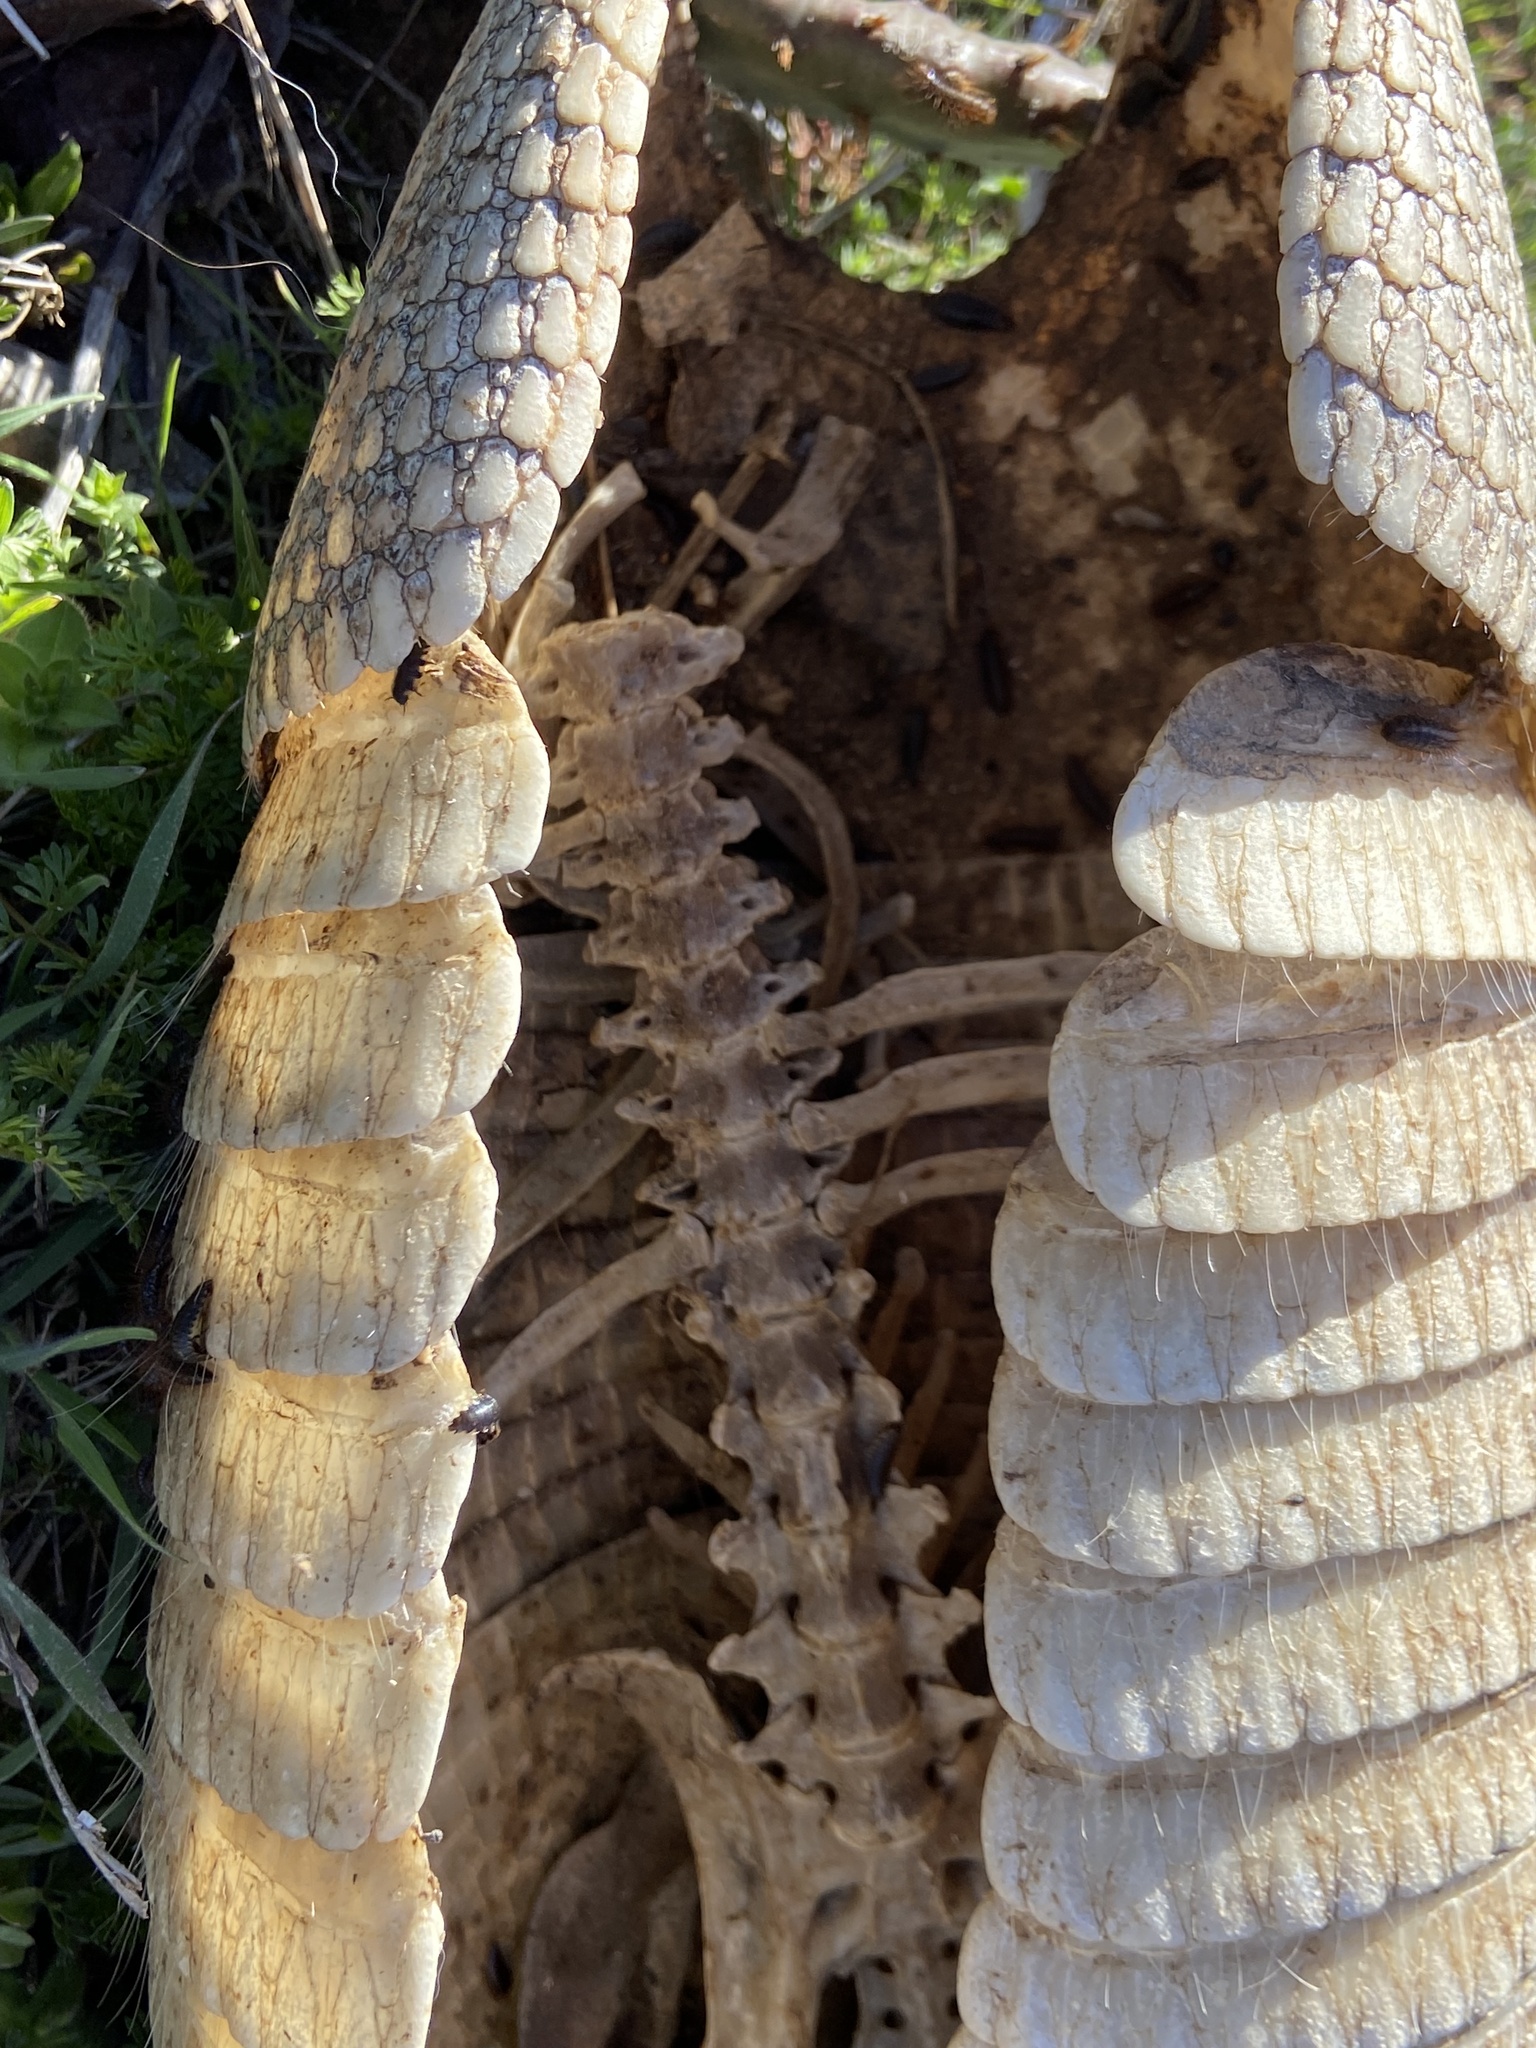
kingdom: Animalia
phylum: Chordata
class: Mammalia
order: Cingulata
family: Dasypodidae
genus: Dasypus
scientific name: Dasypus novemcinctus
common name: Nine-banded armadillo
